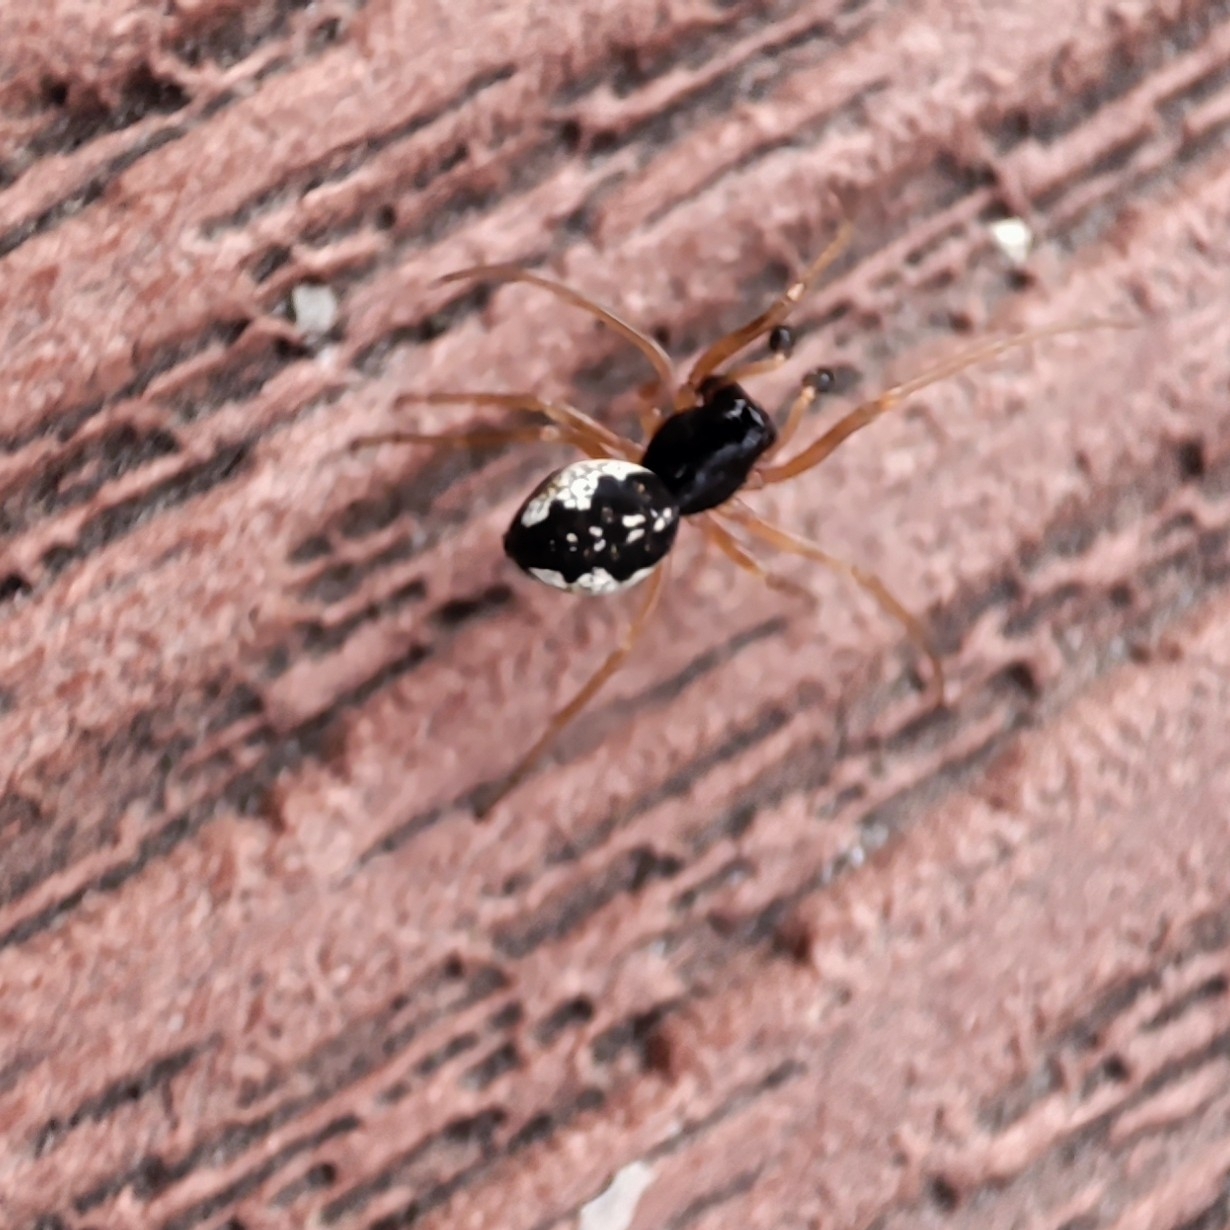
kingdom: Animalia
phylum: Arthropoda
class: Arachnida
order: Araneae
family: Tetragnathidae
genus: Pachygnatha
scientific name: Pachygnatha degeeri
